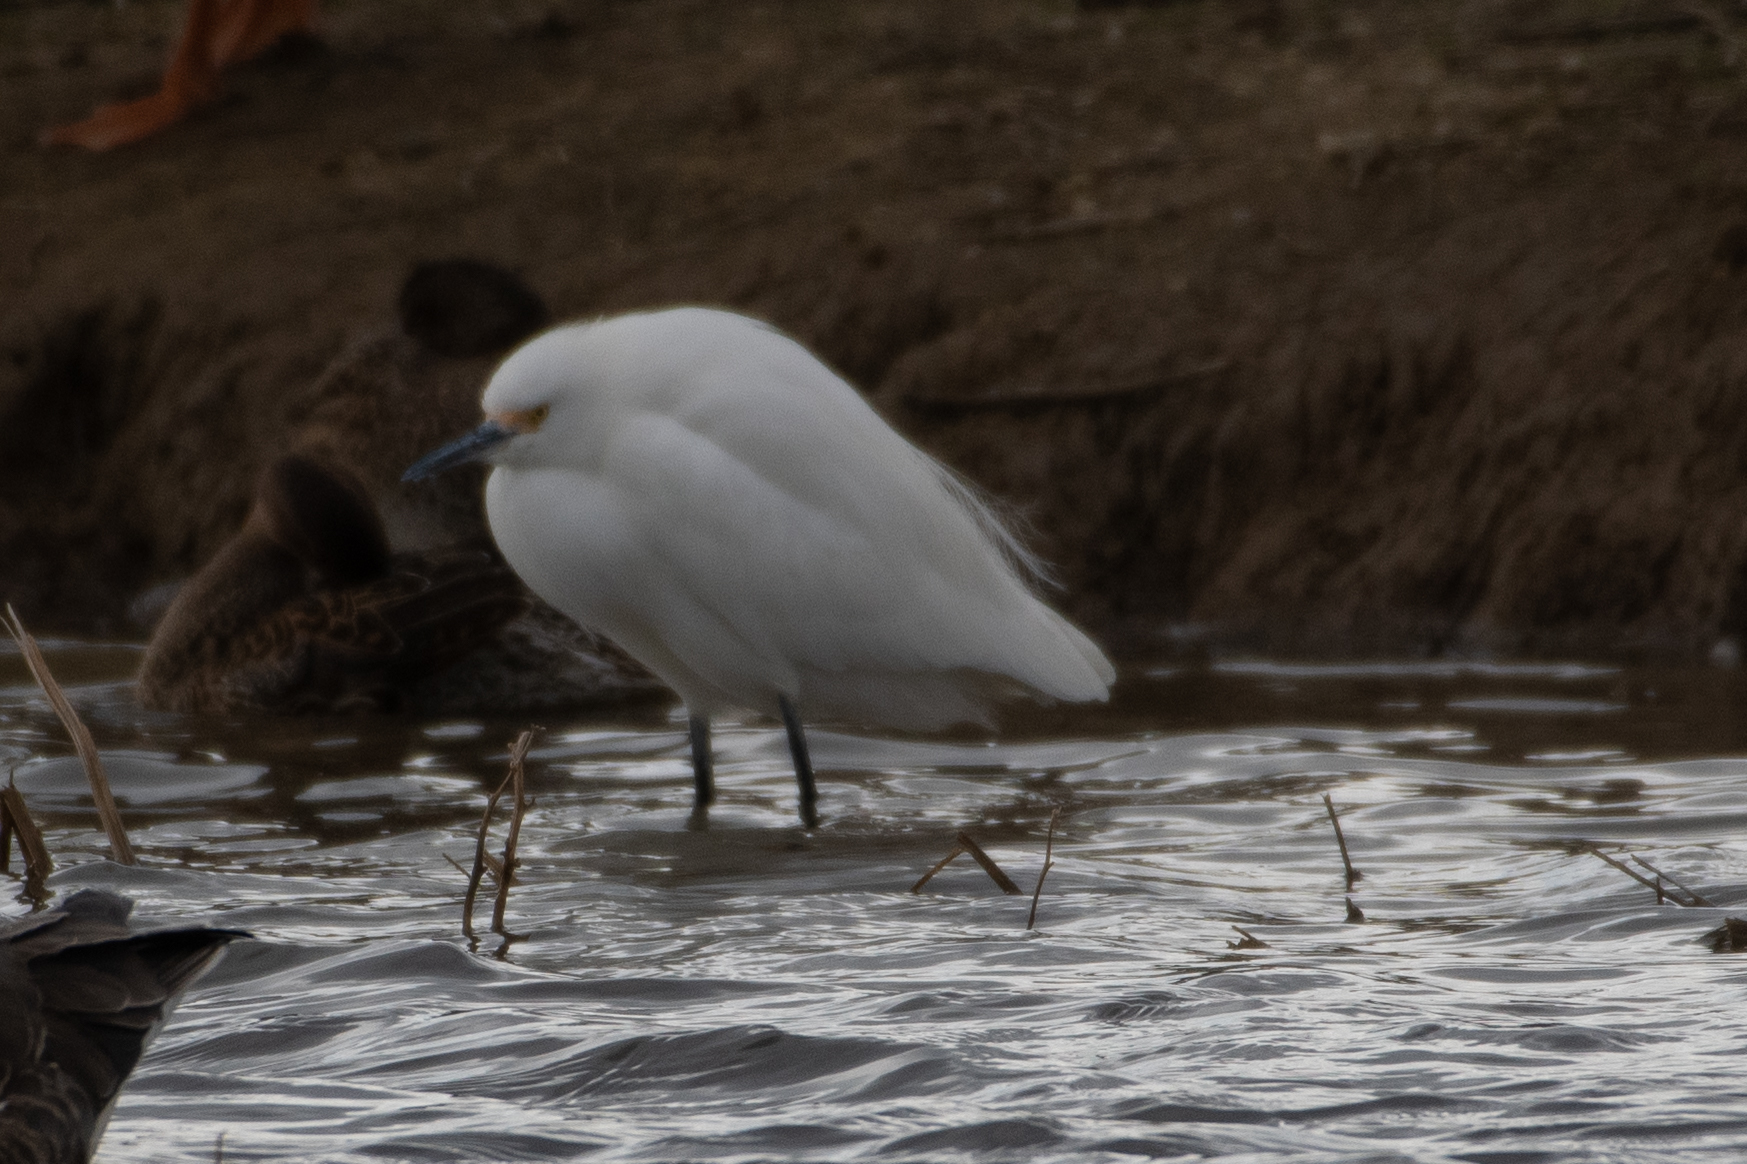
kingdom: Animalia
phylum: Chordata
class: Aves
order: Pelecaniformes
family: Ardeidae
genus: Egretta
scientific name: Egretta thula
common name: Snowy egret
